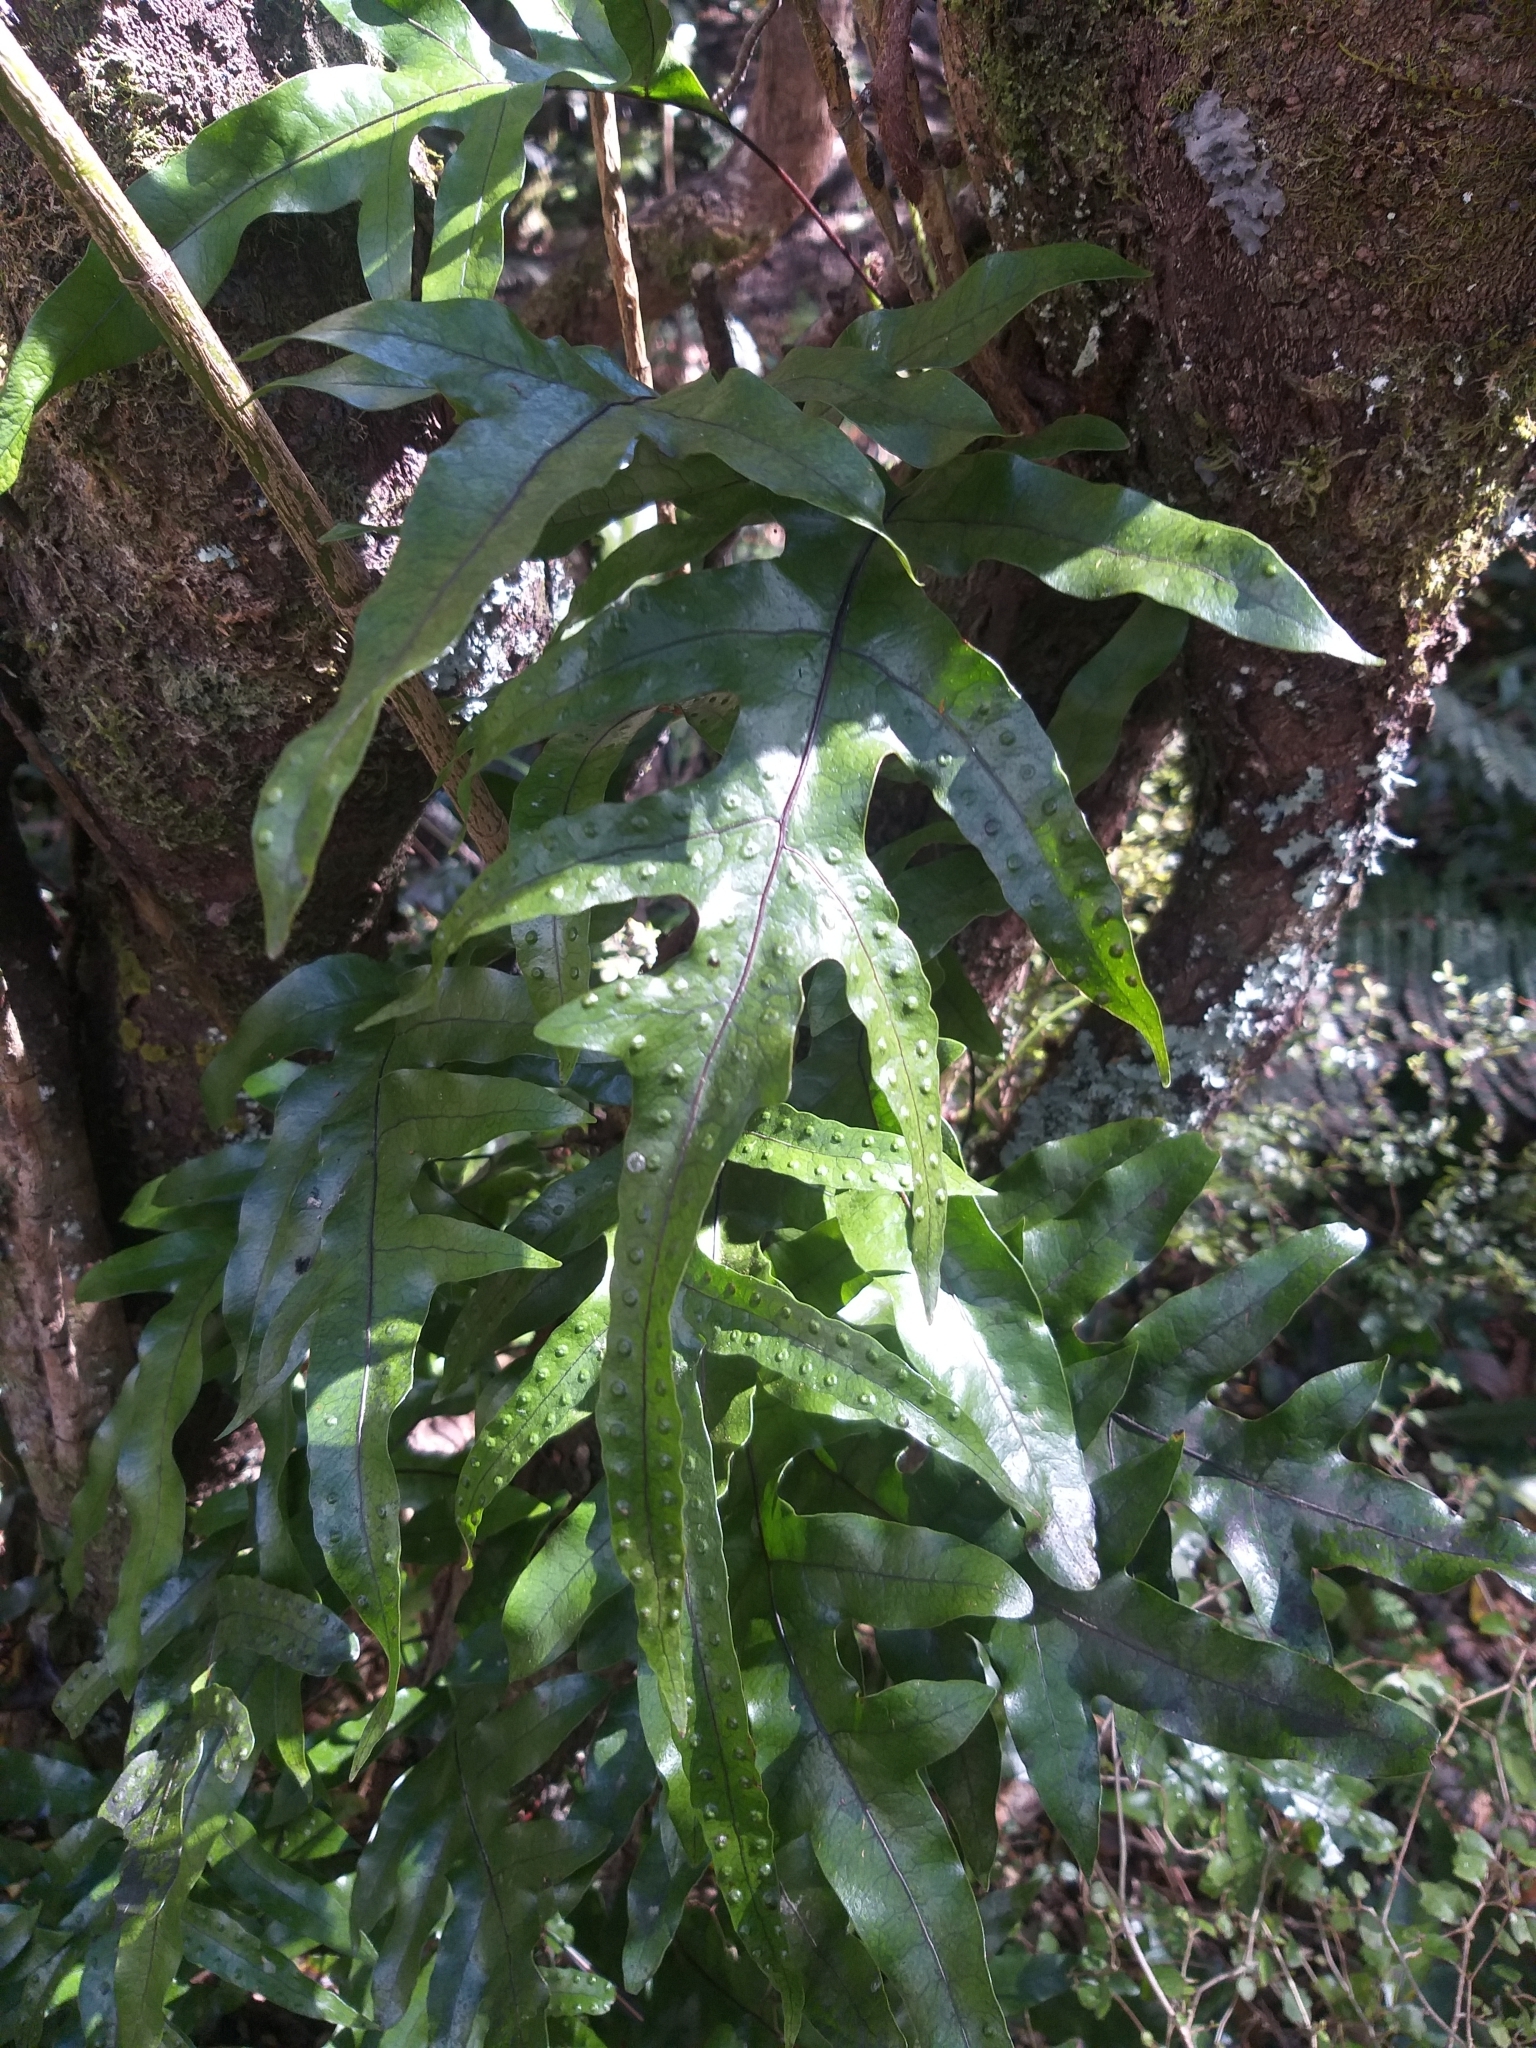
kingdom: Plantae
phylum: Tracheophyta
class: Polypodiopsida
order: Polypodiales
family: Polypodiaceae
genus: Lecanopteris
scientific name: Lecanopteris pustulata
